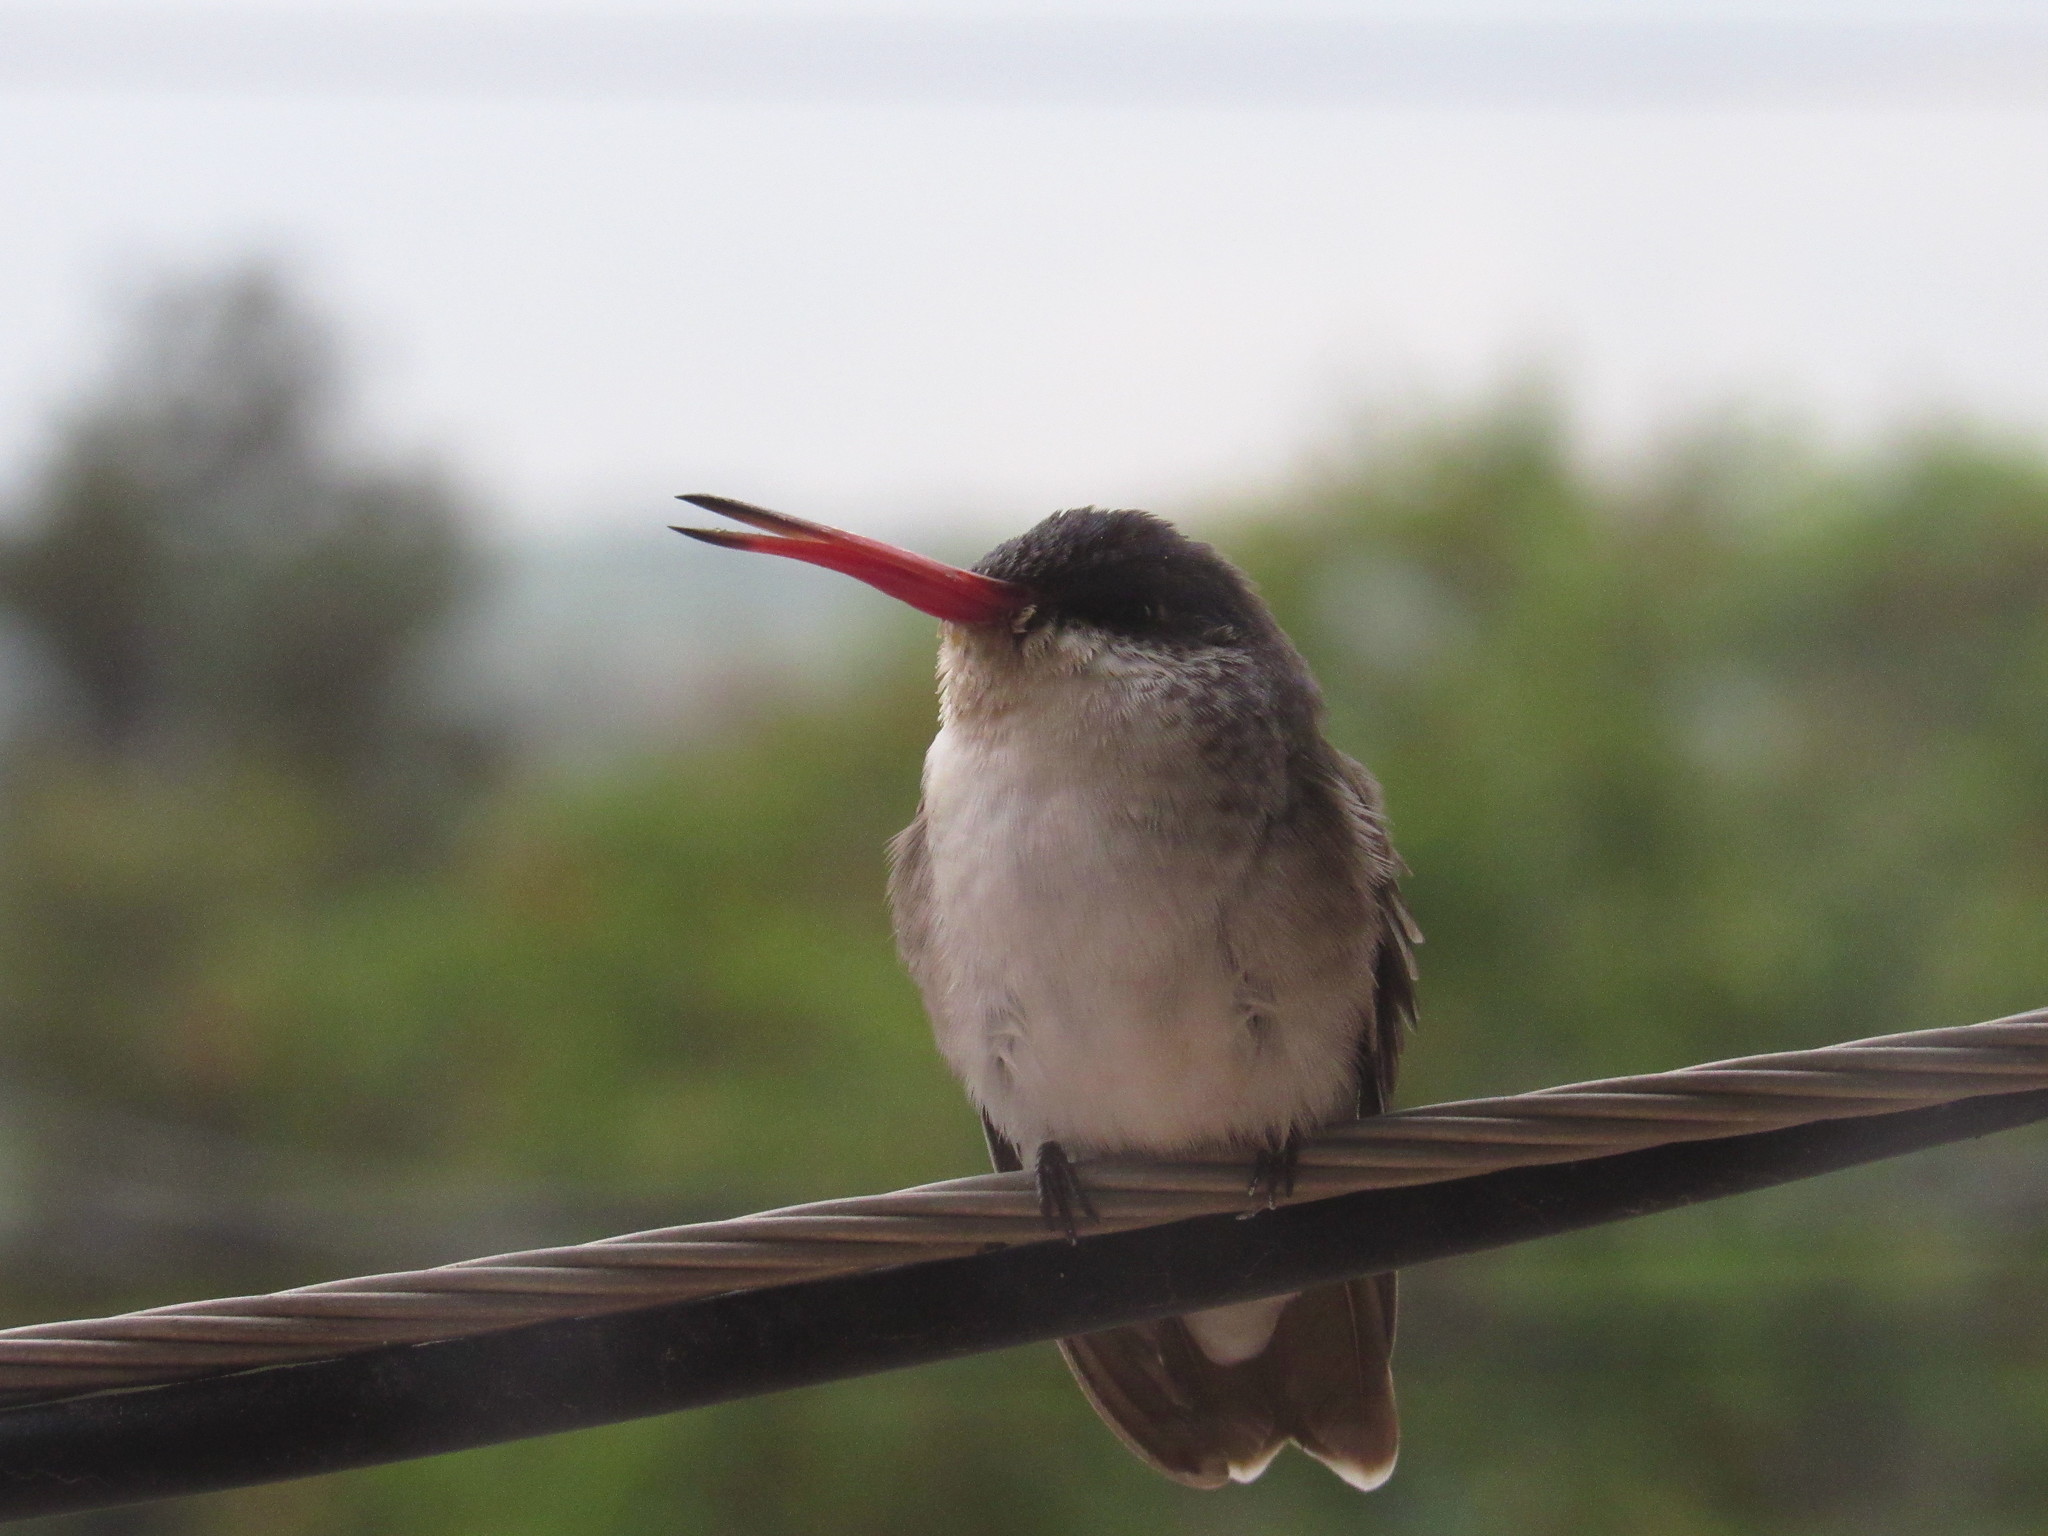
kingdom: Animalia
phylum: Chordata
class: Aves
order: Apodiformes
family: Trochilidae
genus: Leucolia
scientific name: Leucolia violiceps
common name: Violet-crowned hummingbird
